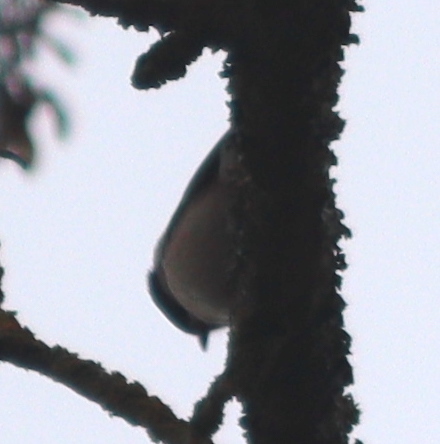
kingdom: Animalia
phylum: Chordata
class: Aves
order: Passeriformes
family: Paridae
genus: Poecile
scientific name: Poecile palustris
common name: Marsh tit
